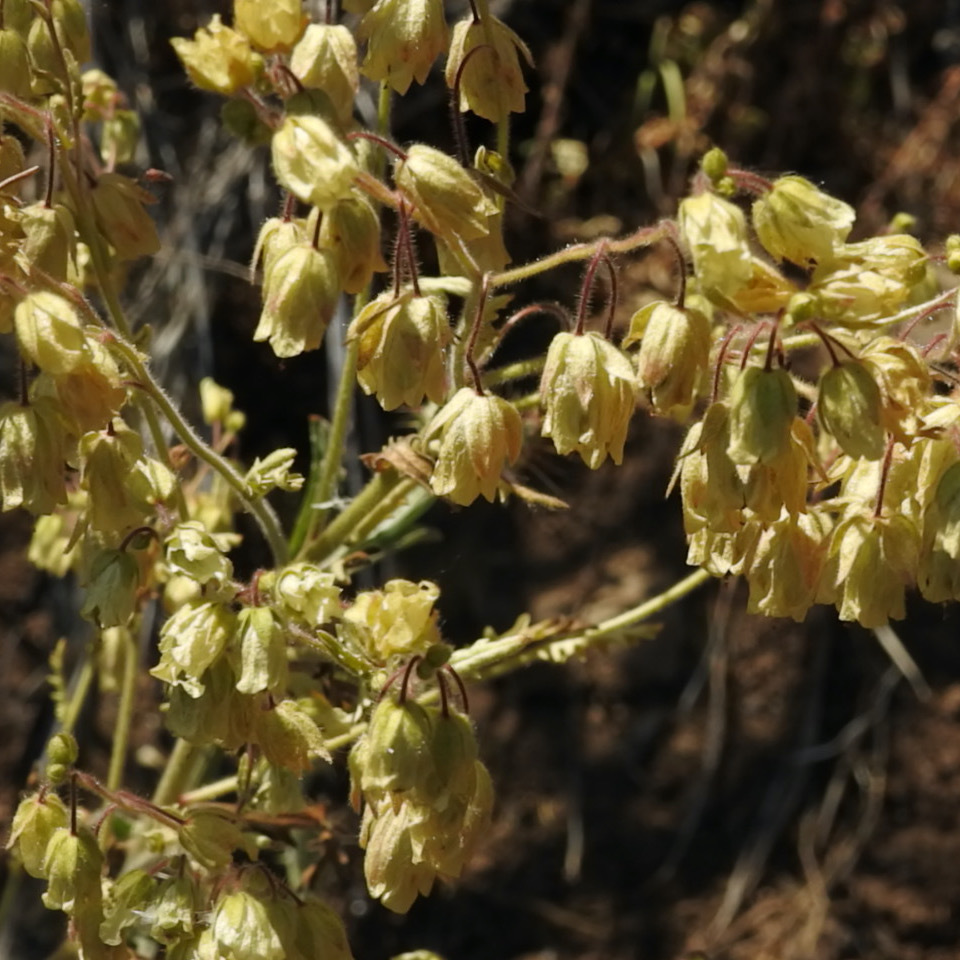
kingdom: Plantae
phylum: Tracheophyta
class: Magnoliopsida
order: Boraginales
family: Hydrophyllaceae
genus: Emmenanthe
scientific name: Emmenanthe penduliflora
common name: Whispering-bells
